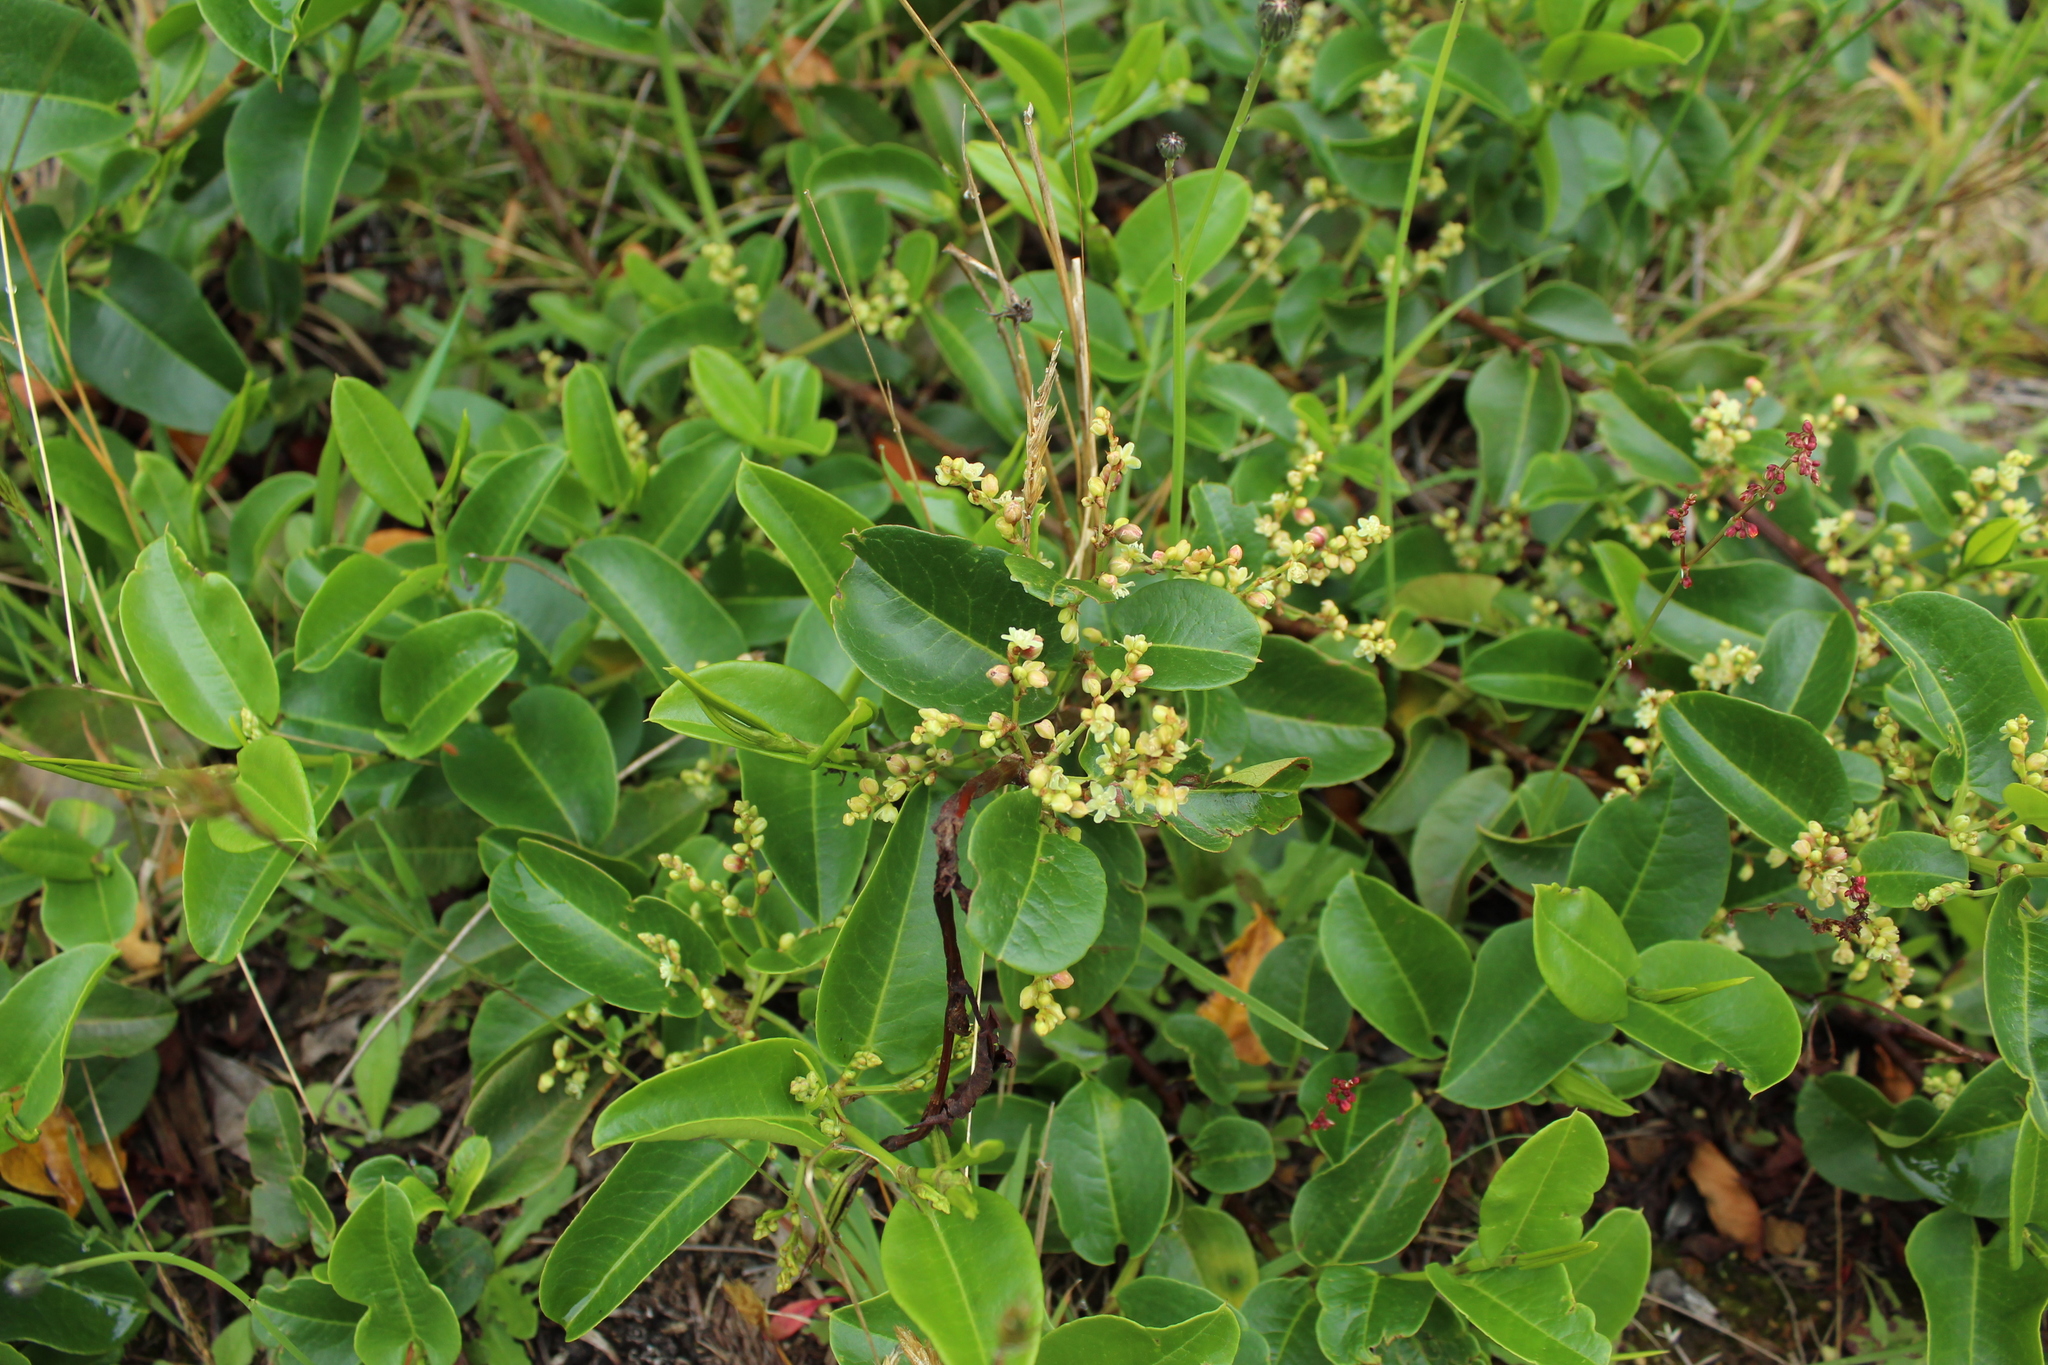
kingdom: Plantae
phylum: Tracheophyta
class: Magnoliopsida
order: Caryophyllales
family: Polygonaceae
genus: Muehlenbeckia
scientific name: Muehlenbeckia tamnifolia
